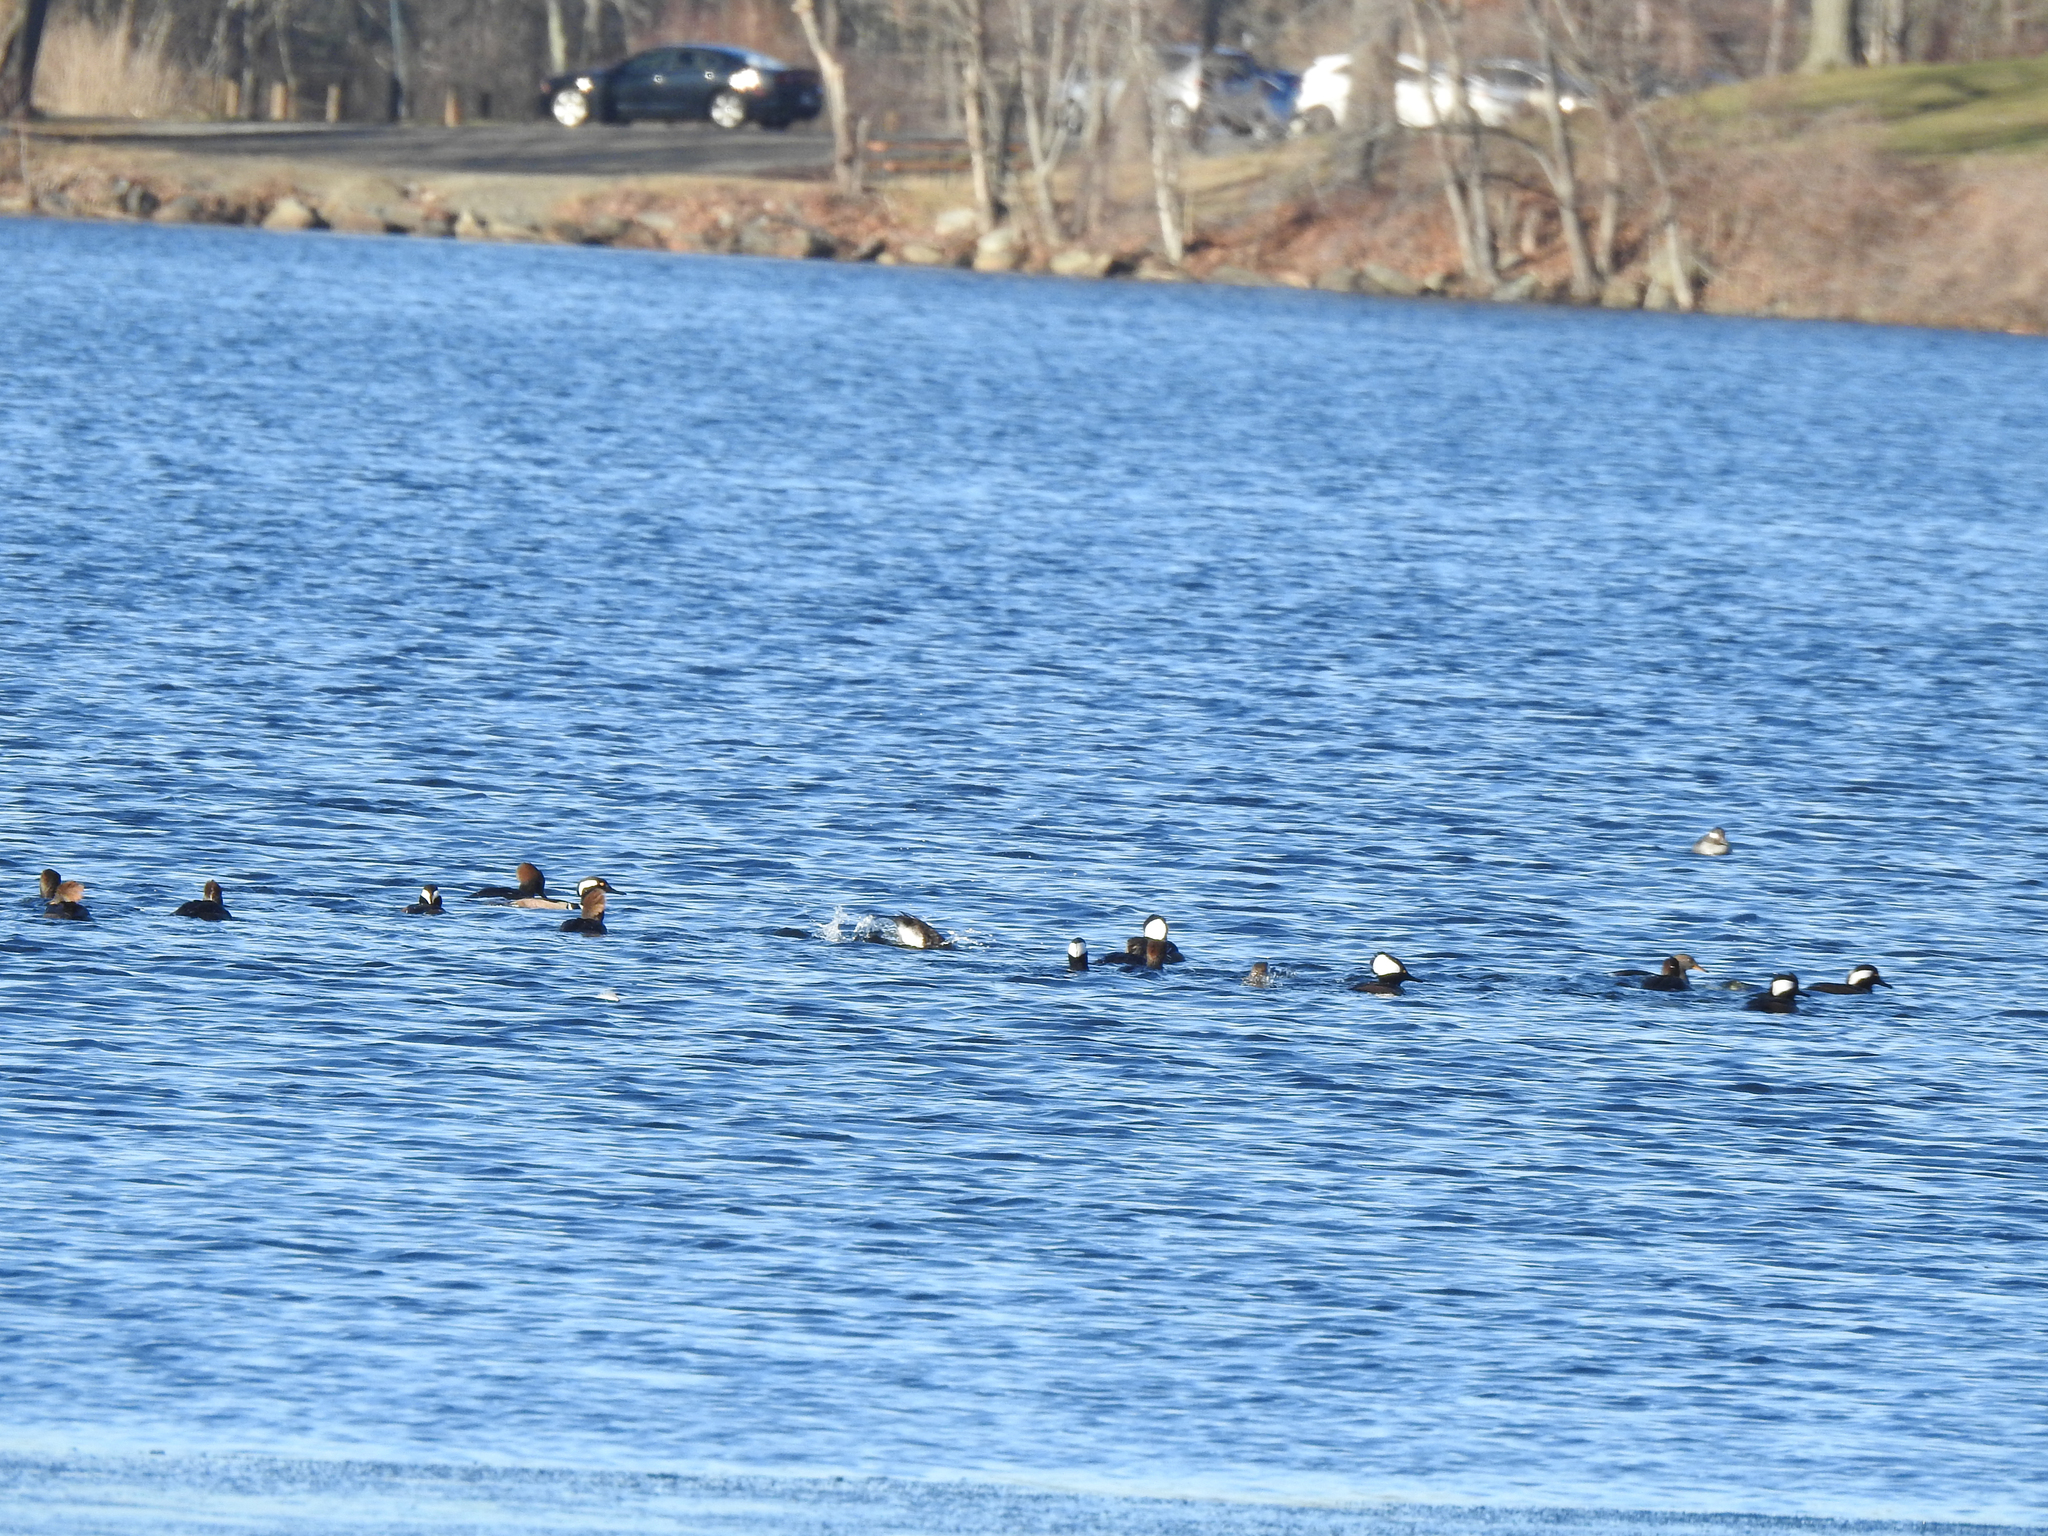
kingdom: Animalia
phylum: Chordata
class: Aves
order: Anseriformes
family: Anatidae
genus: Lophodytes
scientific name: Lophodytes cucullatus
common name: Hooded merganser
